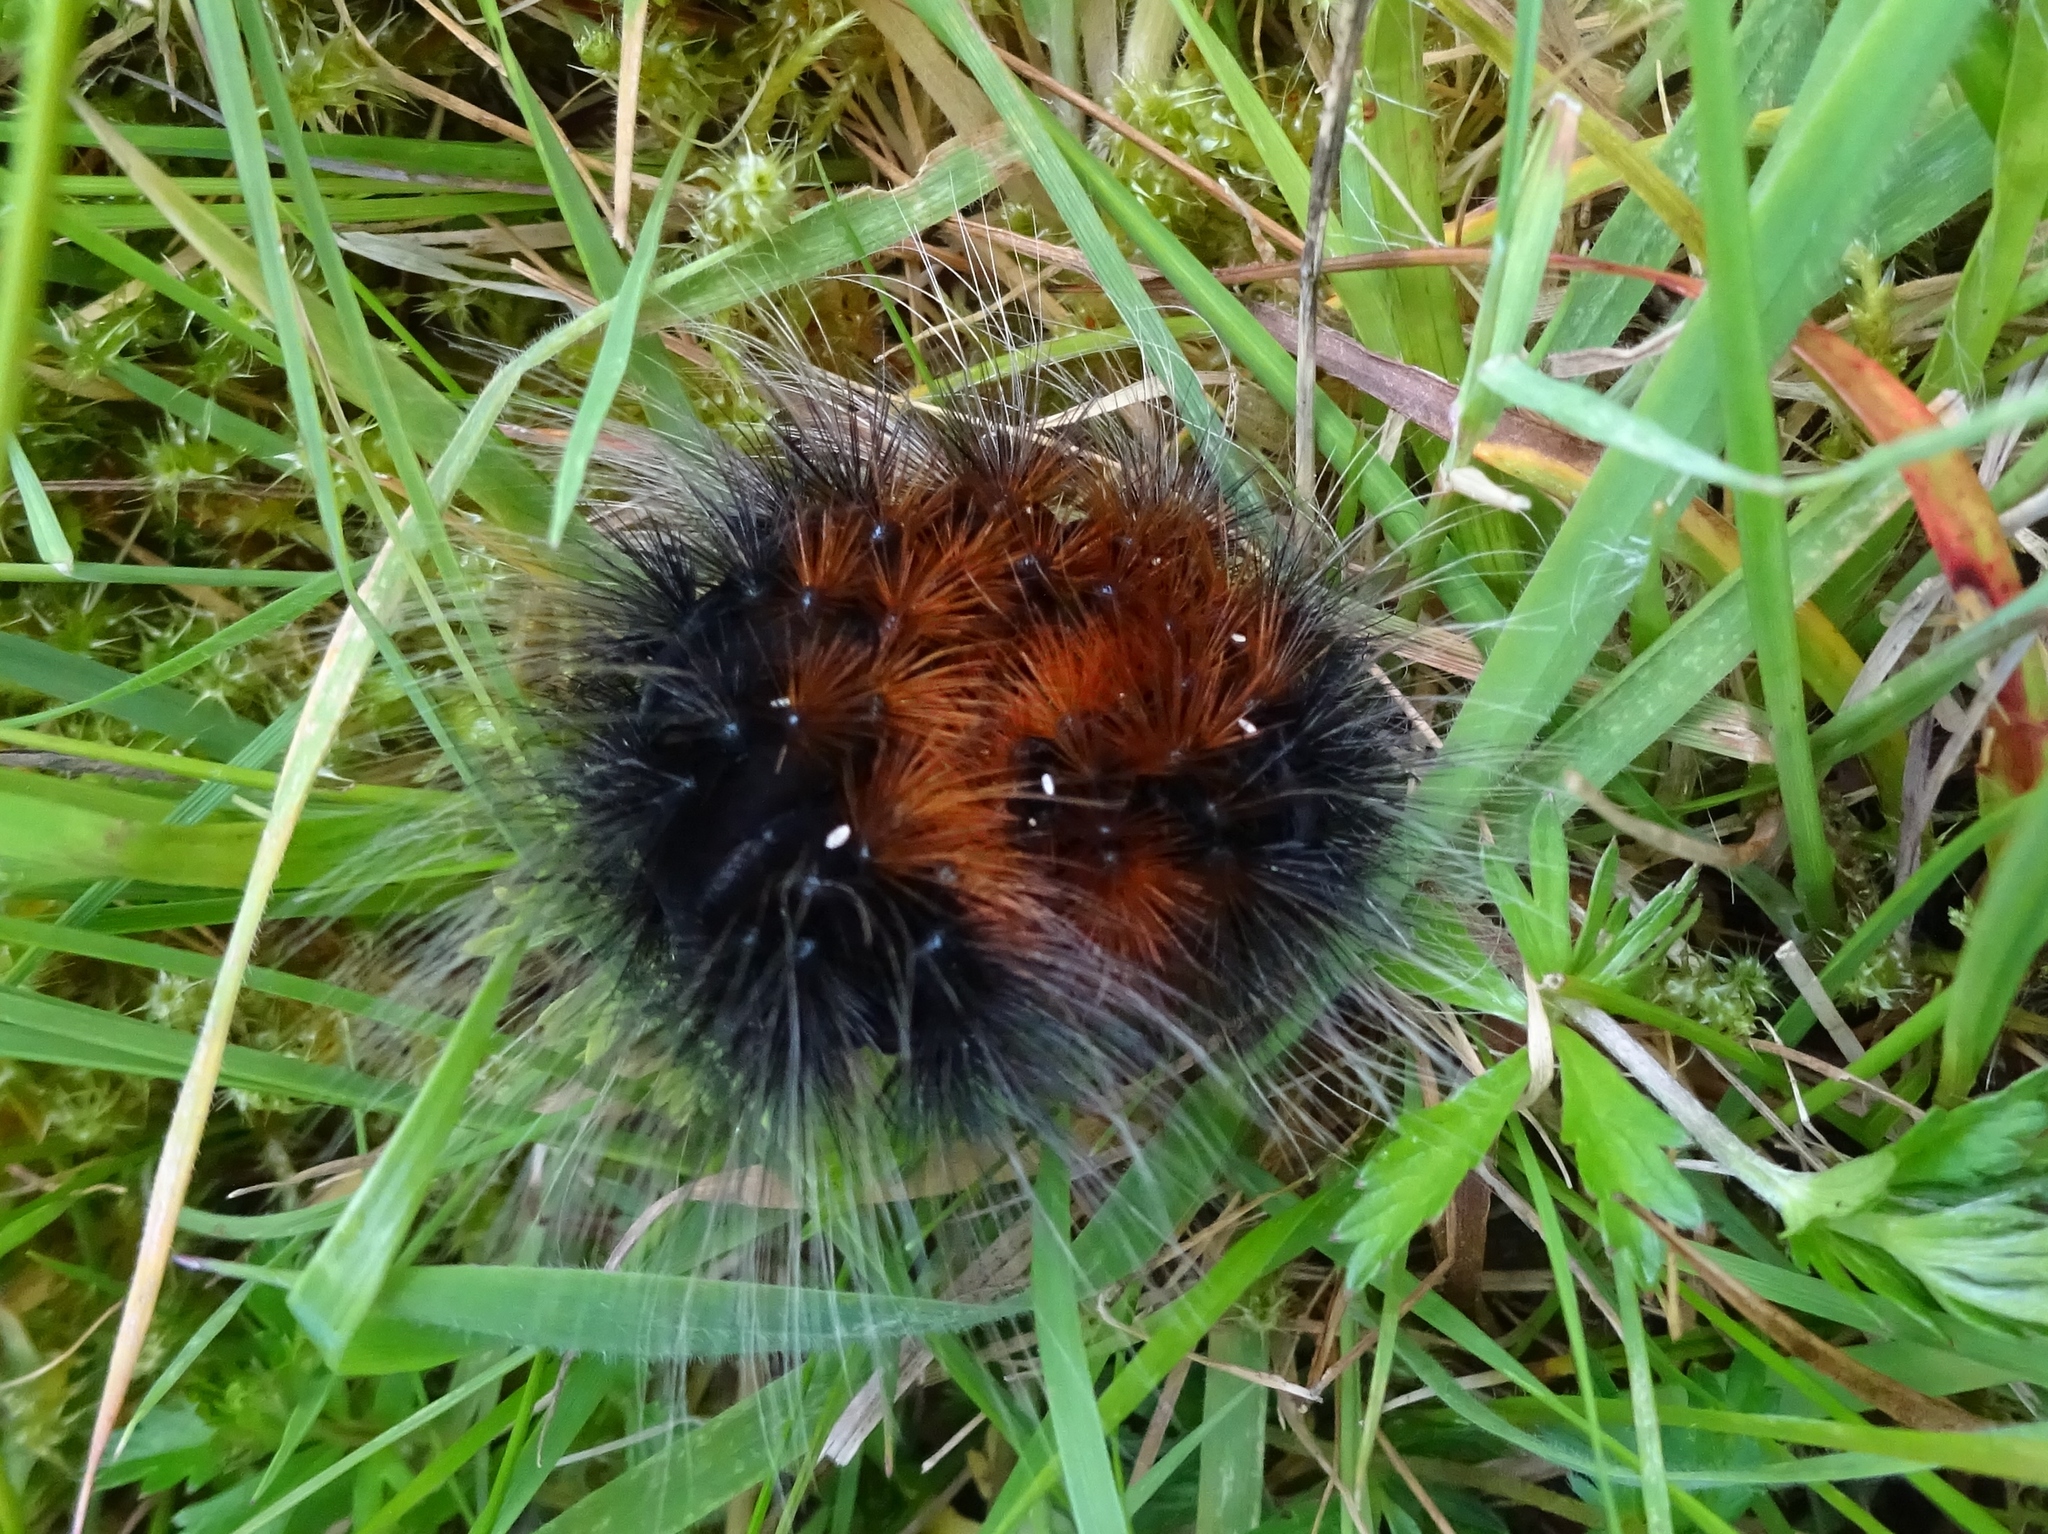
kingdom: Animalia
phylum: Arthropoda
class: Insecta
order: Lepidoptera
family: Erebidae
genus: Arctia
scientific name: Arctia caja
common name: Garden tiger
